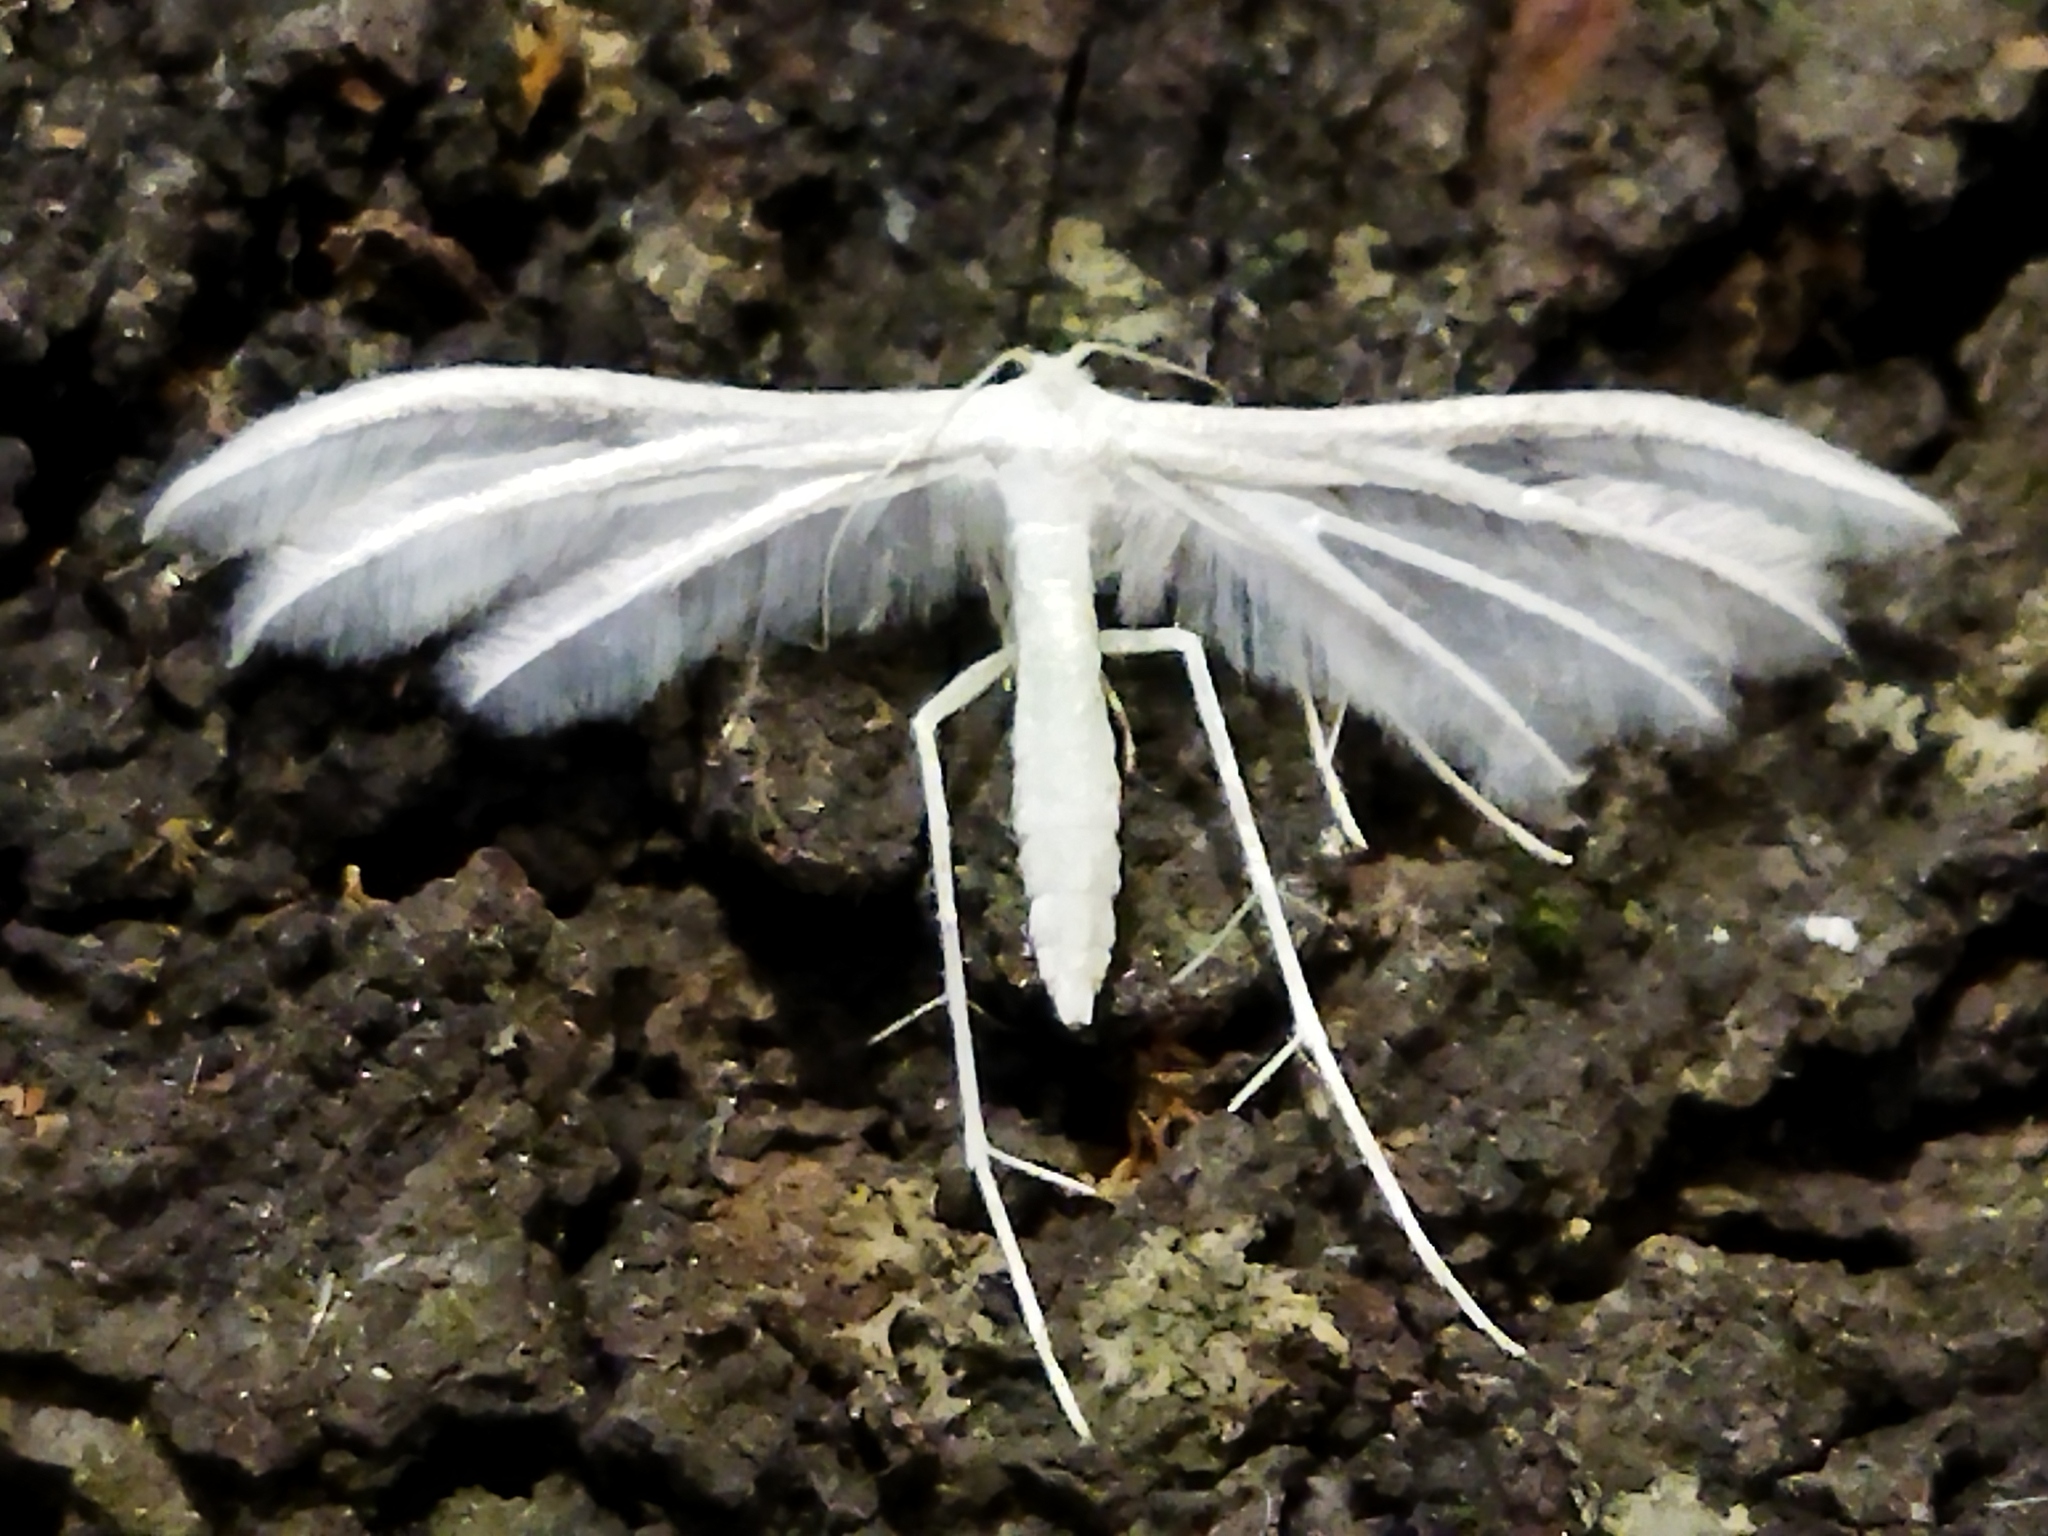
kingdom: Animalia
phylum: Arthropoda
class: Insecta
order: Lepidoptera
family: Pterophoridae
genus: Pterophorus
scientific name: Pterophorus pentadactyla
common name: White plume moth
